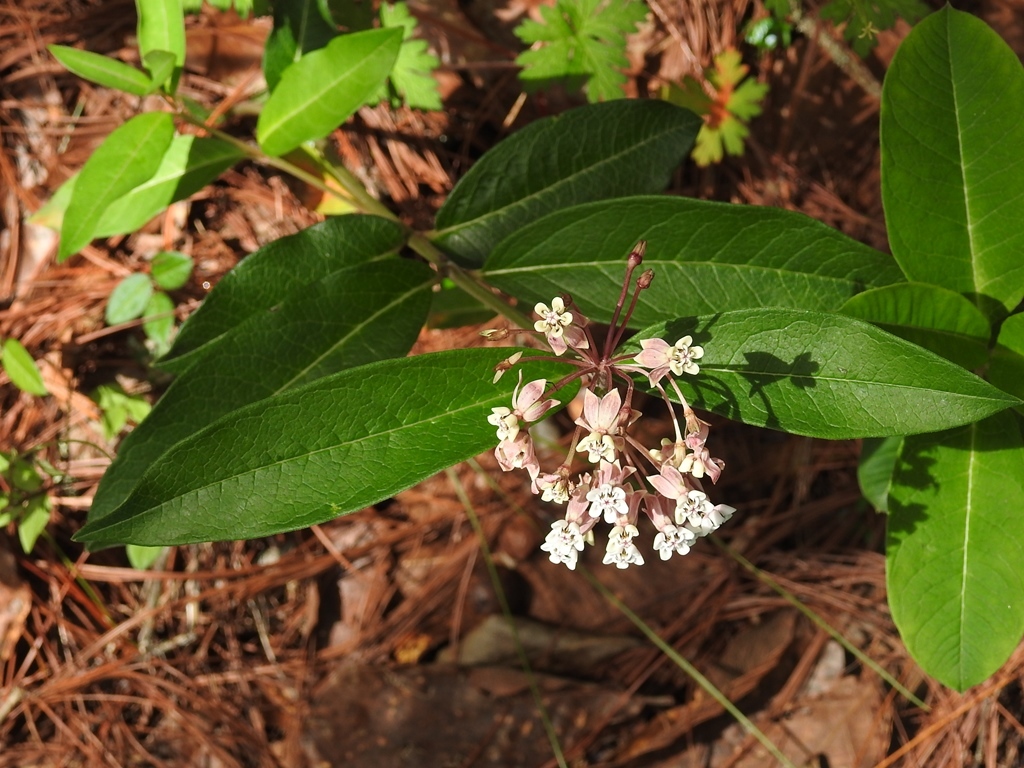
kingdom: Plantae
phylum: Tracheophyta
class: Magnoliopsida
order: Gentianales
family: Apocynaceae
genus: Asclepias
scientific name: Asclepias pellucida
